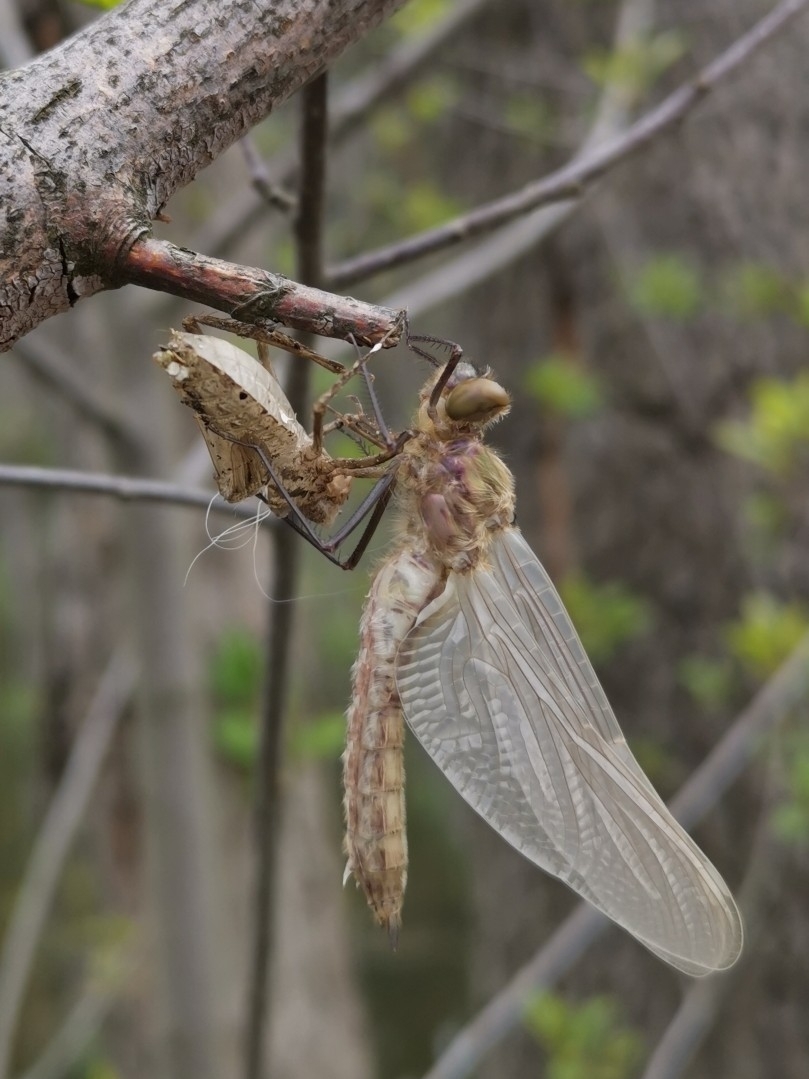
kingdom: Animalia
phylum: Arthropoda
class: Insecta
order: Odonata
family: Corduliidae
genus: Cordulia
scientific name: Cordulia aenea
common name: Downy emerald
